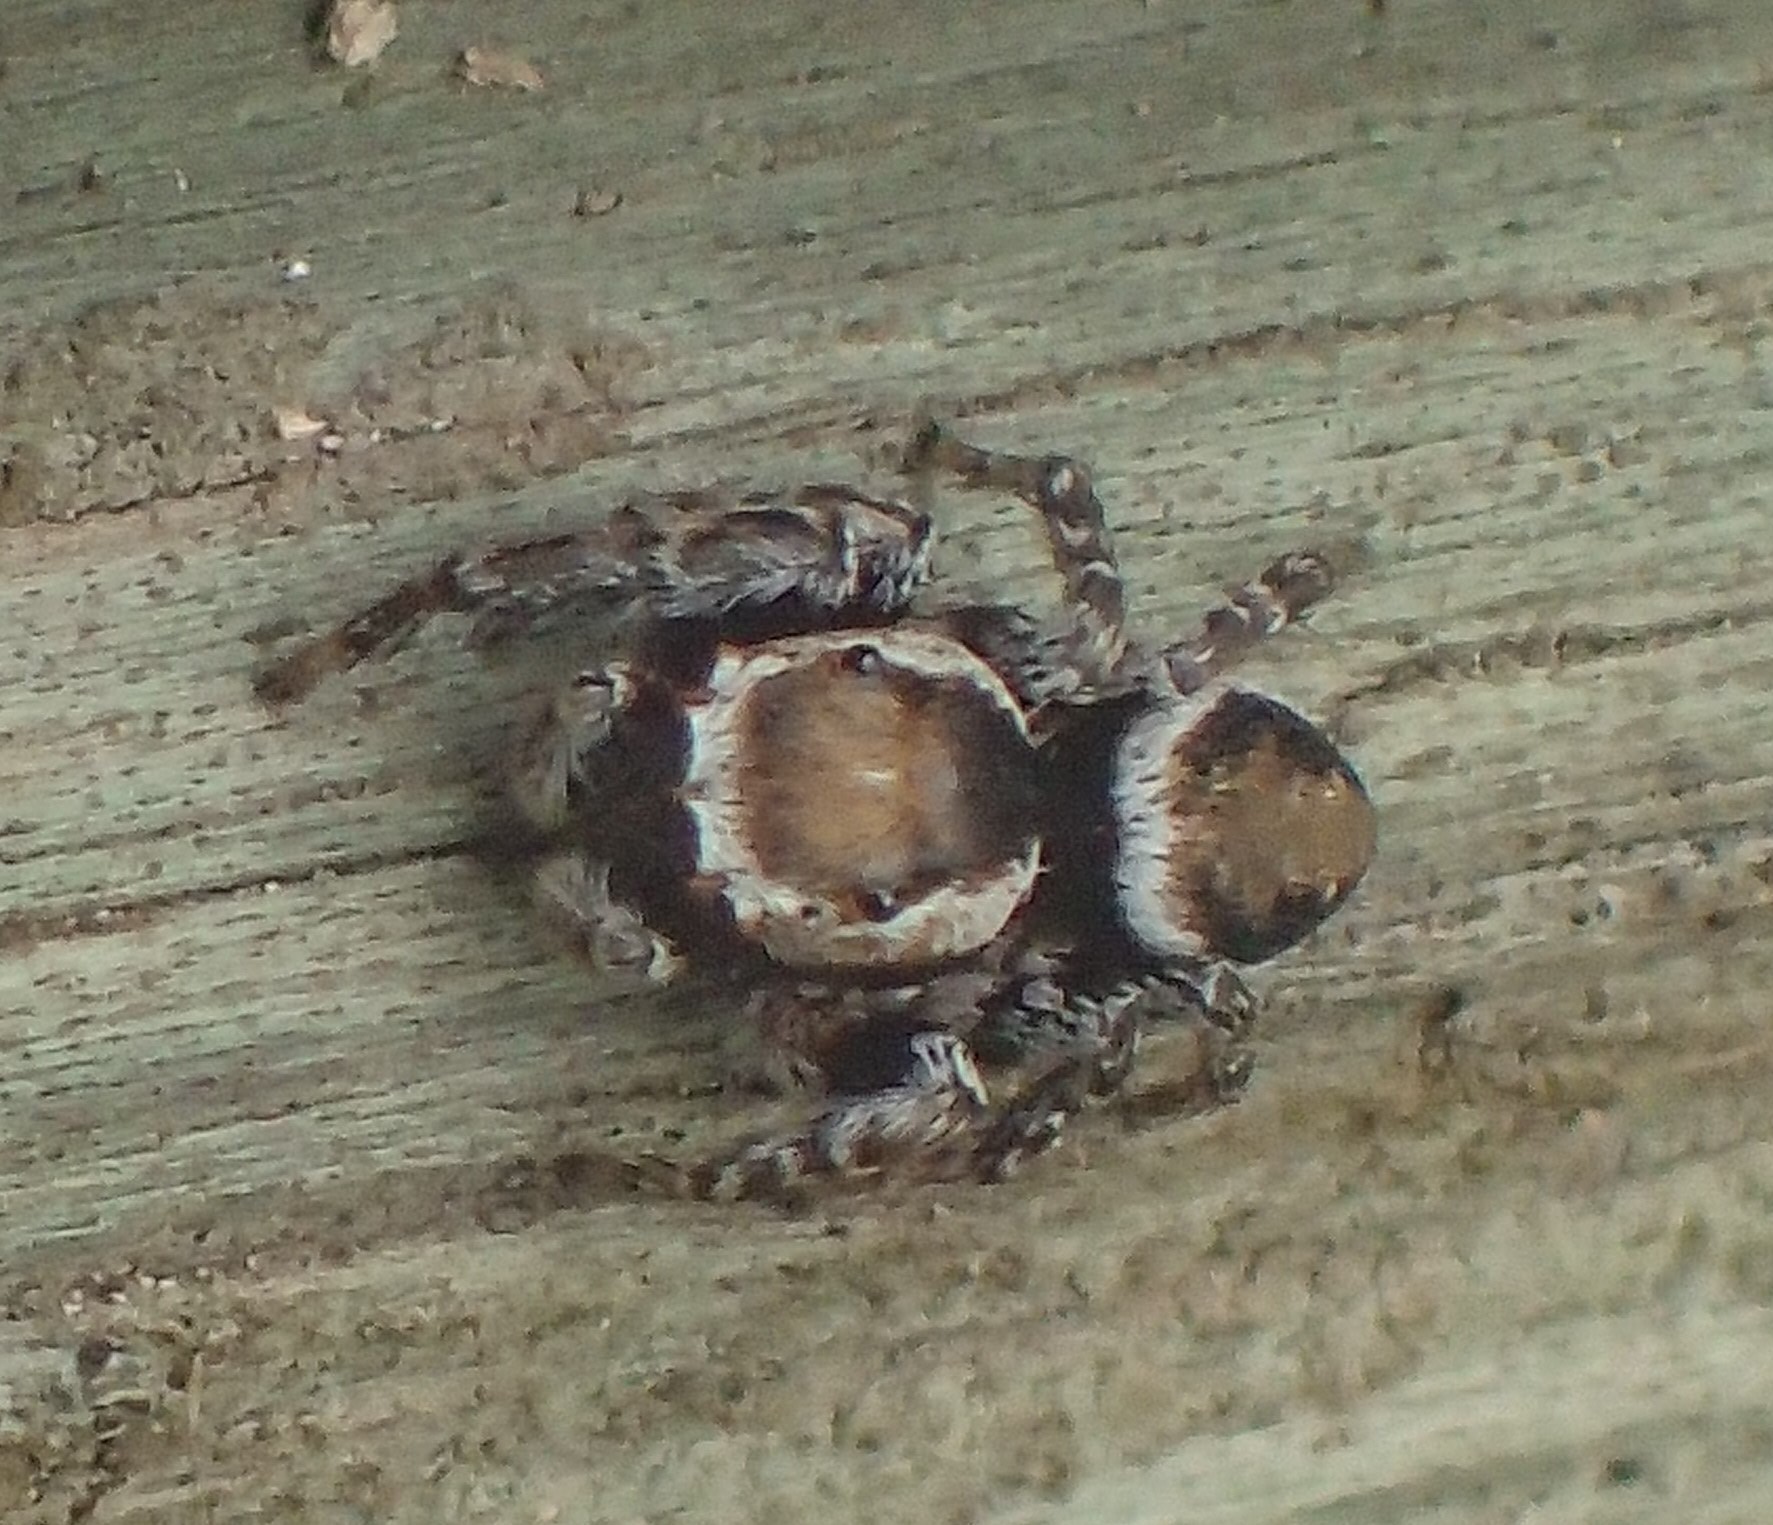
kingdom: Animalia
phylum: Arthropoda
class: Arachnida
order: Araneae
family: Salticidae
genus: Evarcha
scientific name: Evarcha hoyi
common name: Hoy's jumping spider
